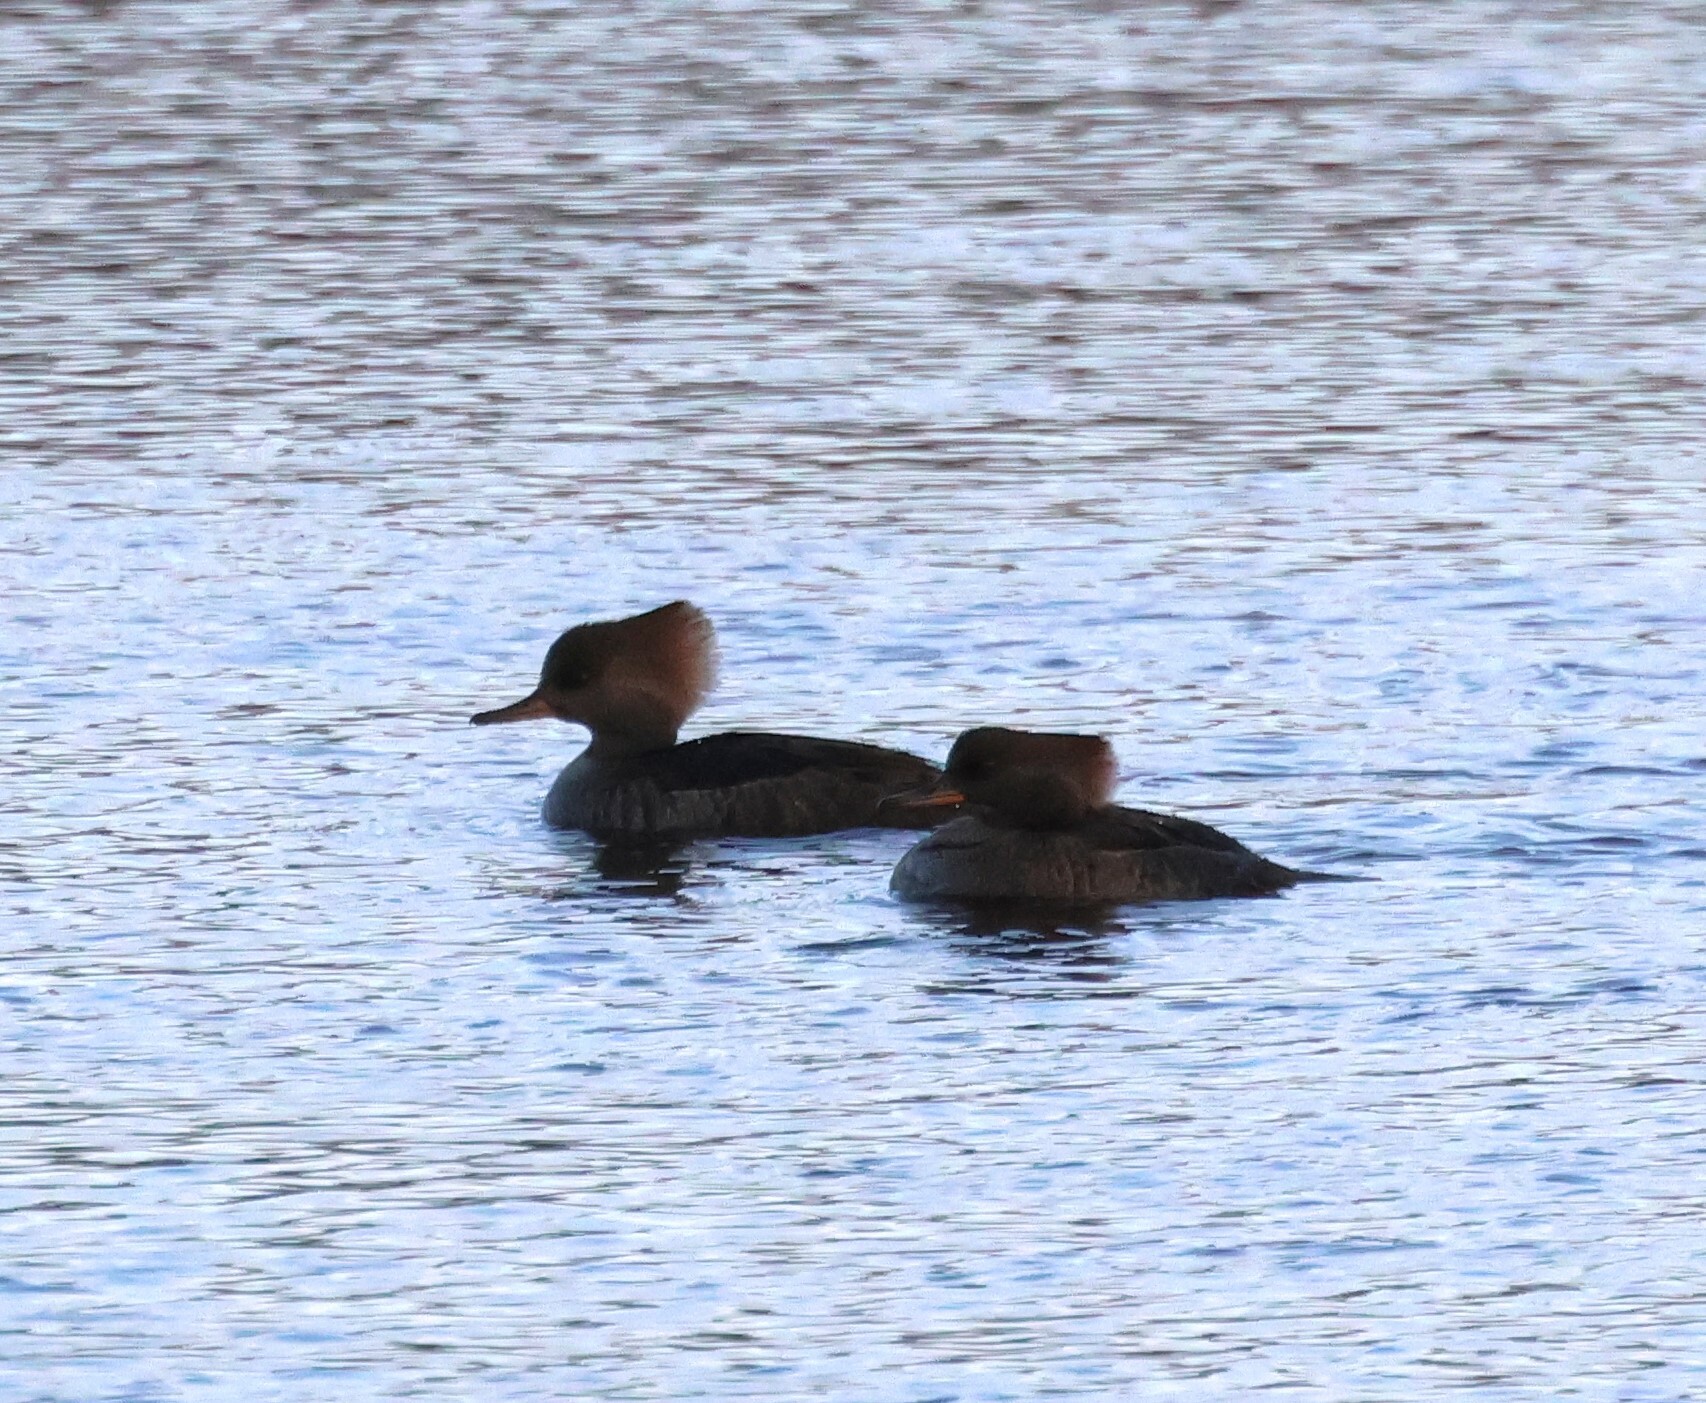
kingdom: Animalia
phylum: Chordata
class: Aves
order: Anseriformes
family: Anatidae
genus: Lophodytes
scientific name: Lophodytes cucullatus
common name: Hooded merganser
